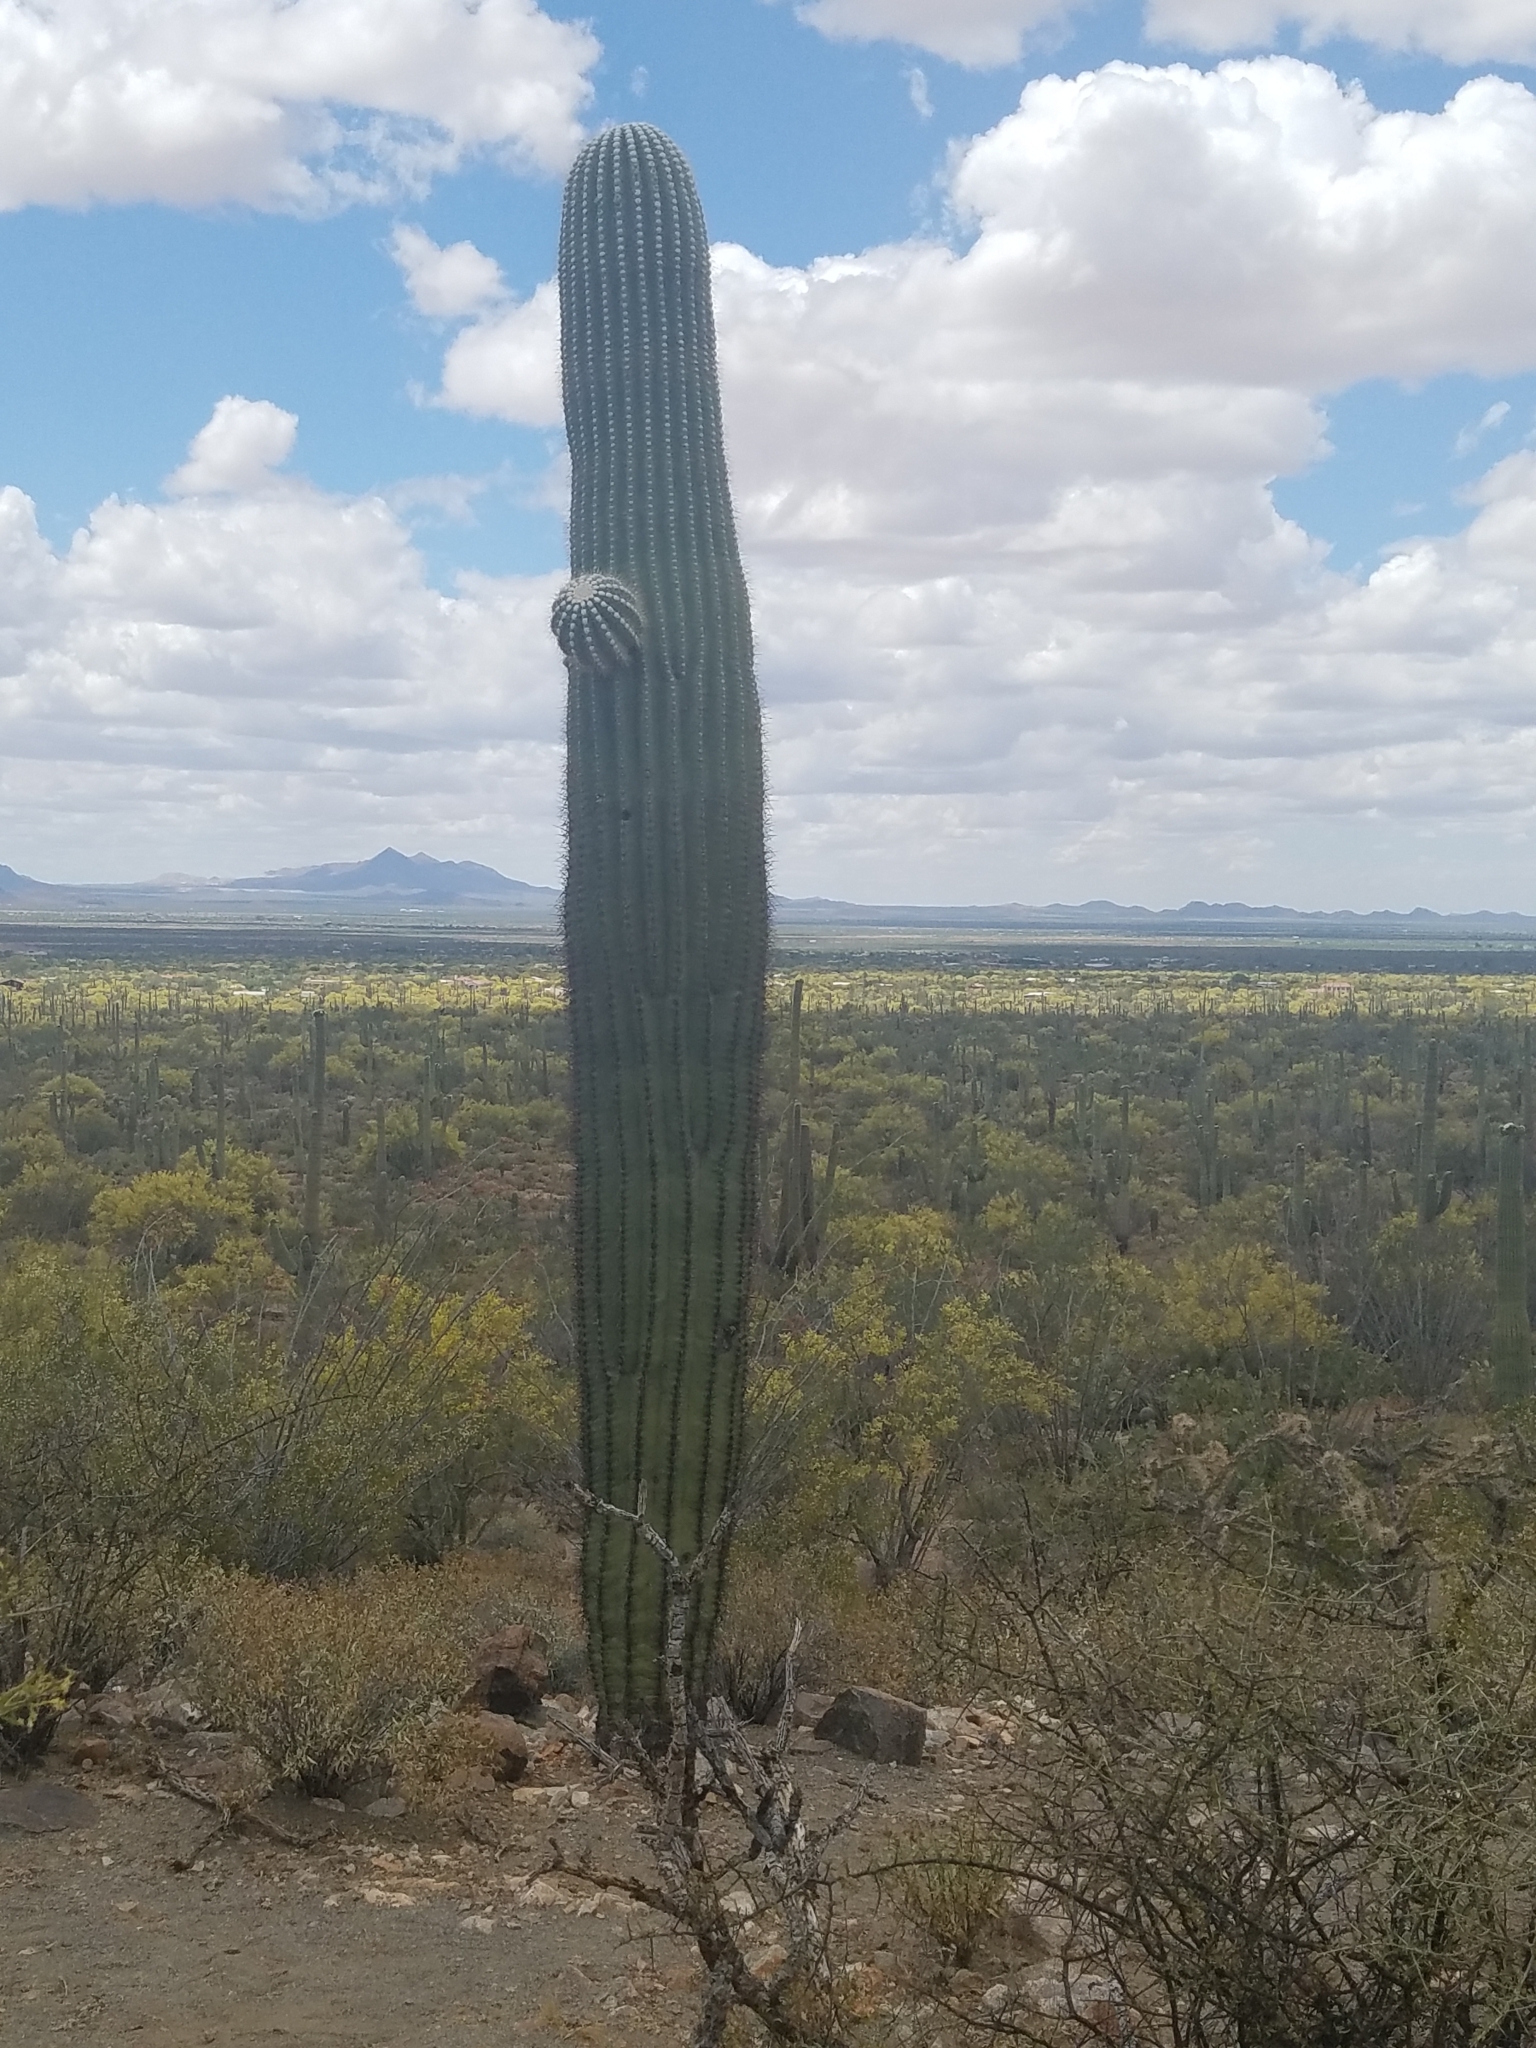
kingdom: Plantae
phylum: Tracheophyta
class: Magnoliopsida
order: Caryophyllales
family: Cactaceae
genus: Carnegiea
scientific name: Carnegiea gigantea
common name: Saguaro
